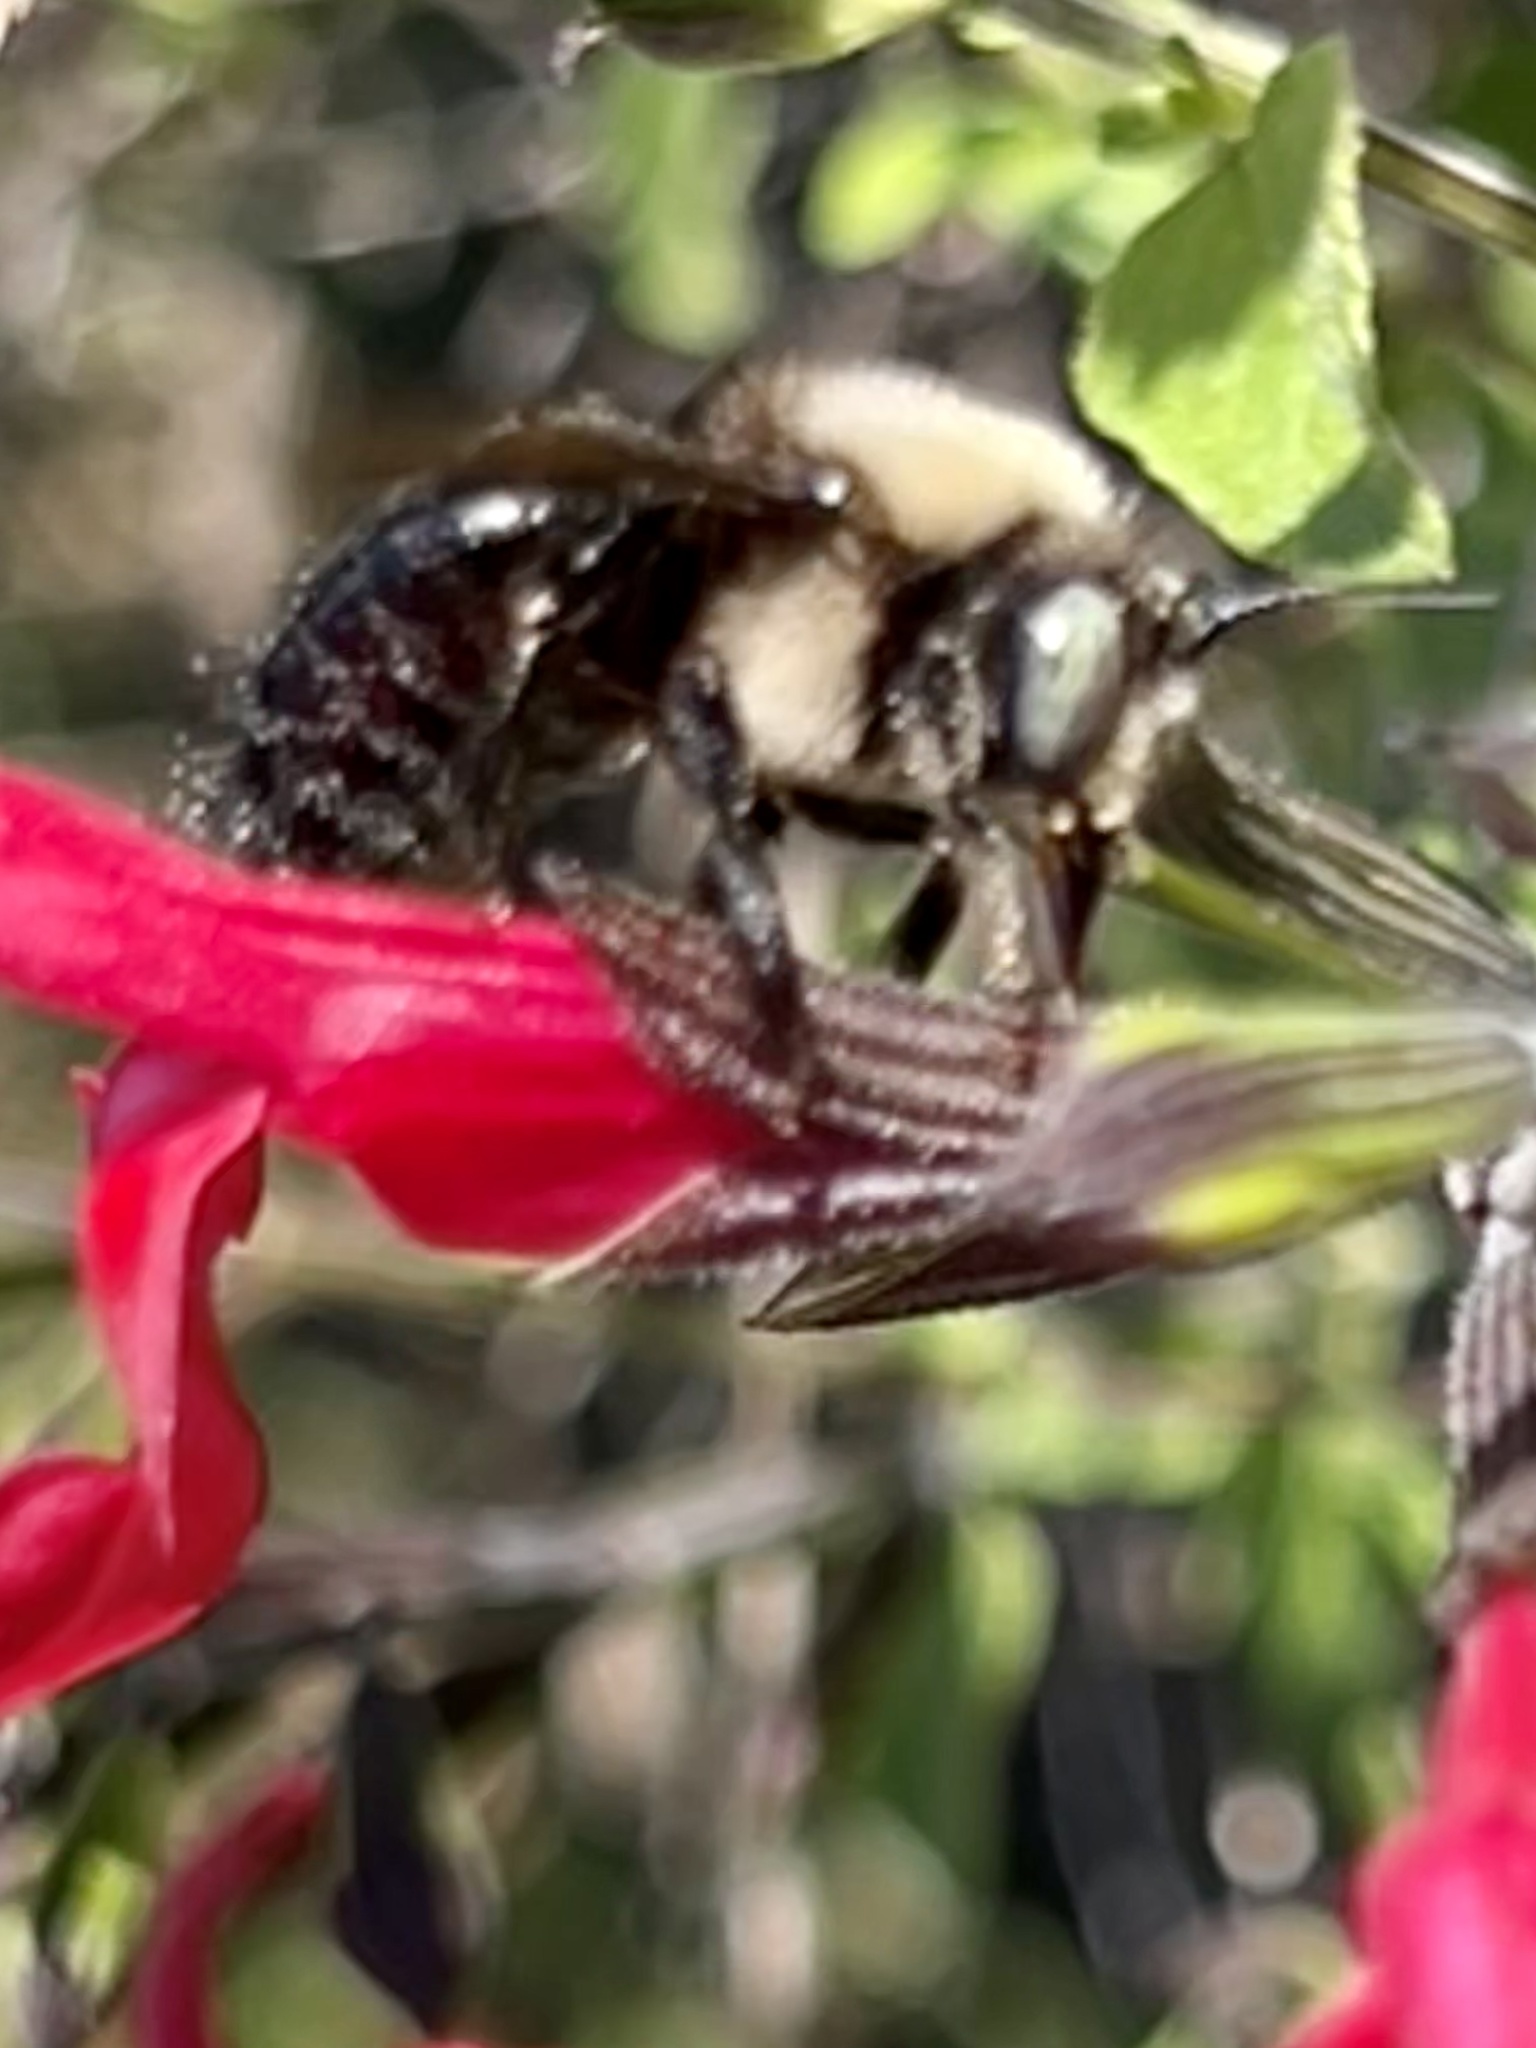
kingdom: Animalia
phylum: Arthropoda
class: Insecta
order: Hymenoptera
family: Apidae
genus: Xylocopa
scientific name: Xylocopa tabaniformis
